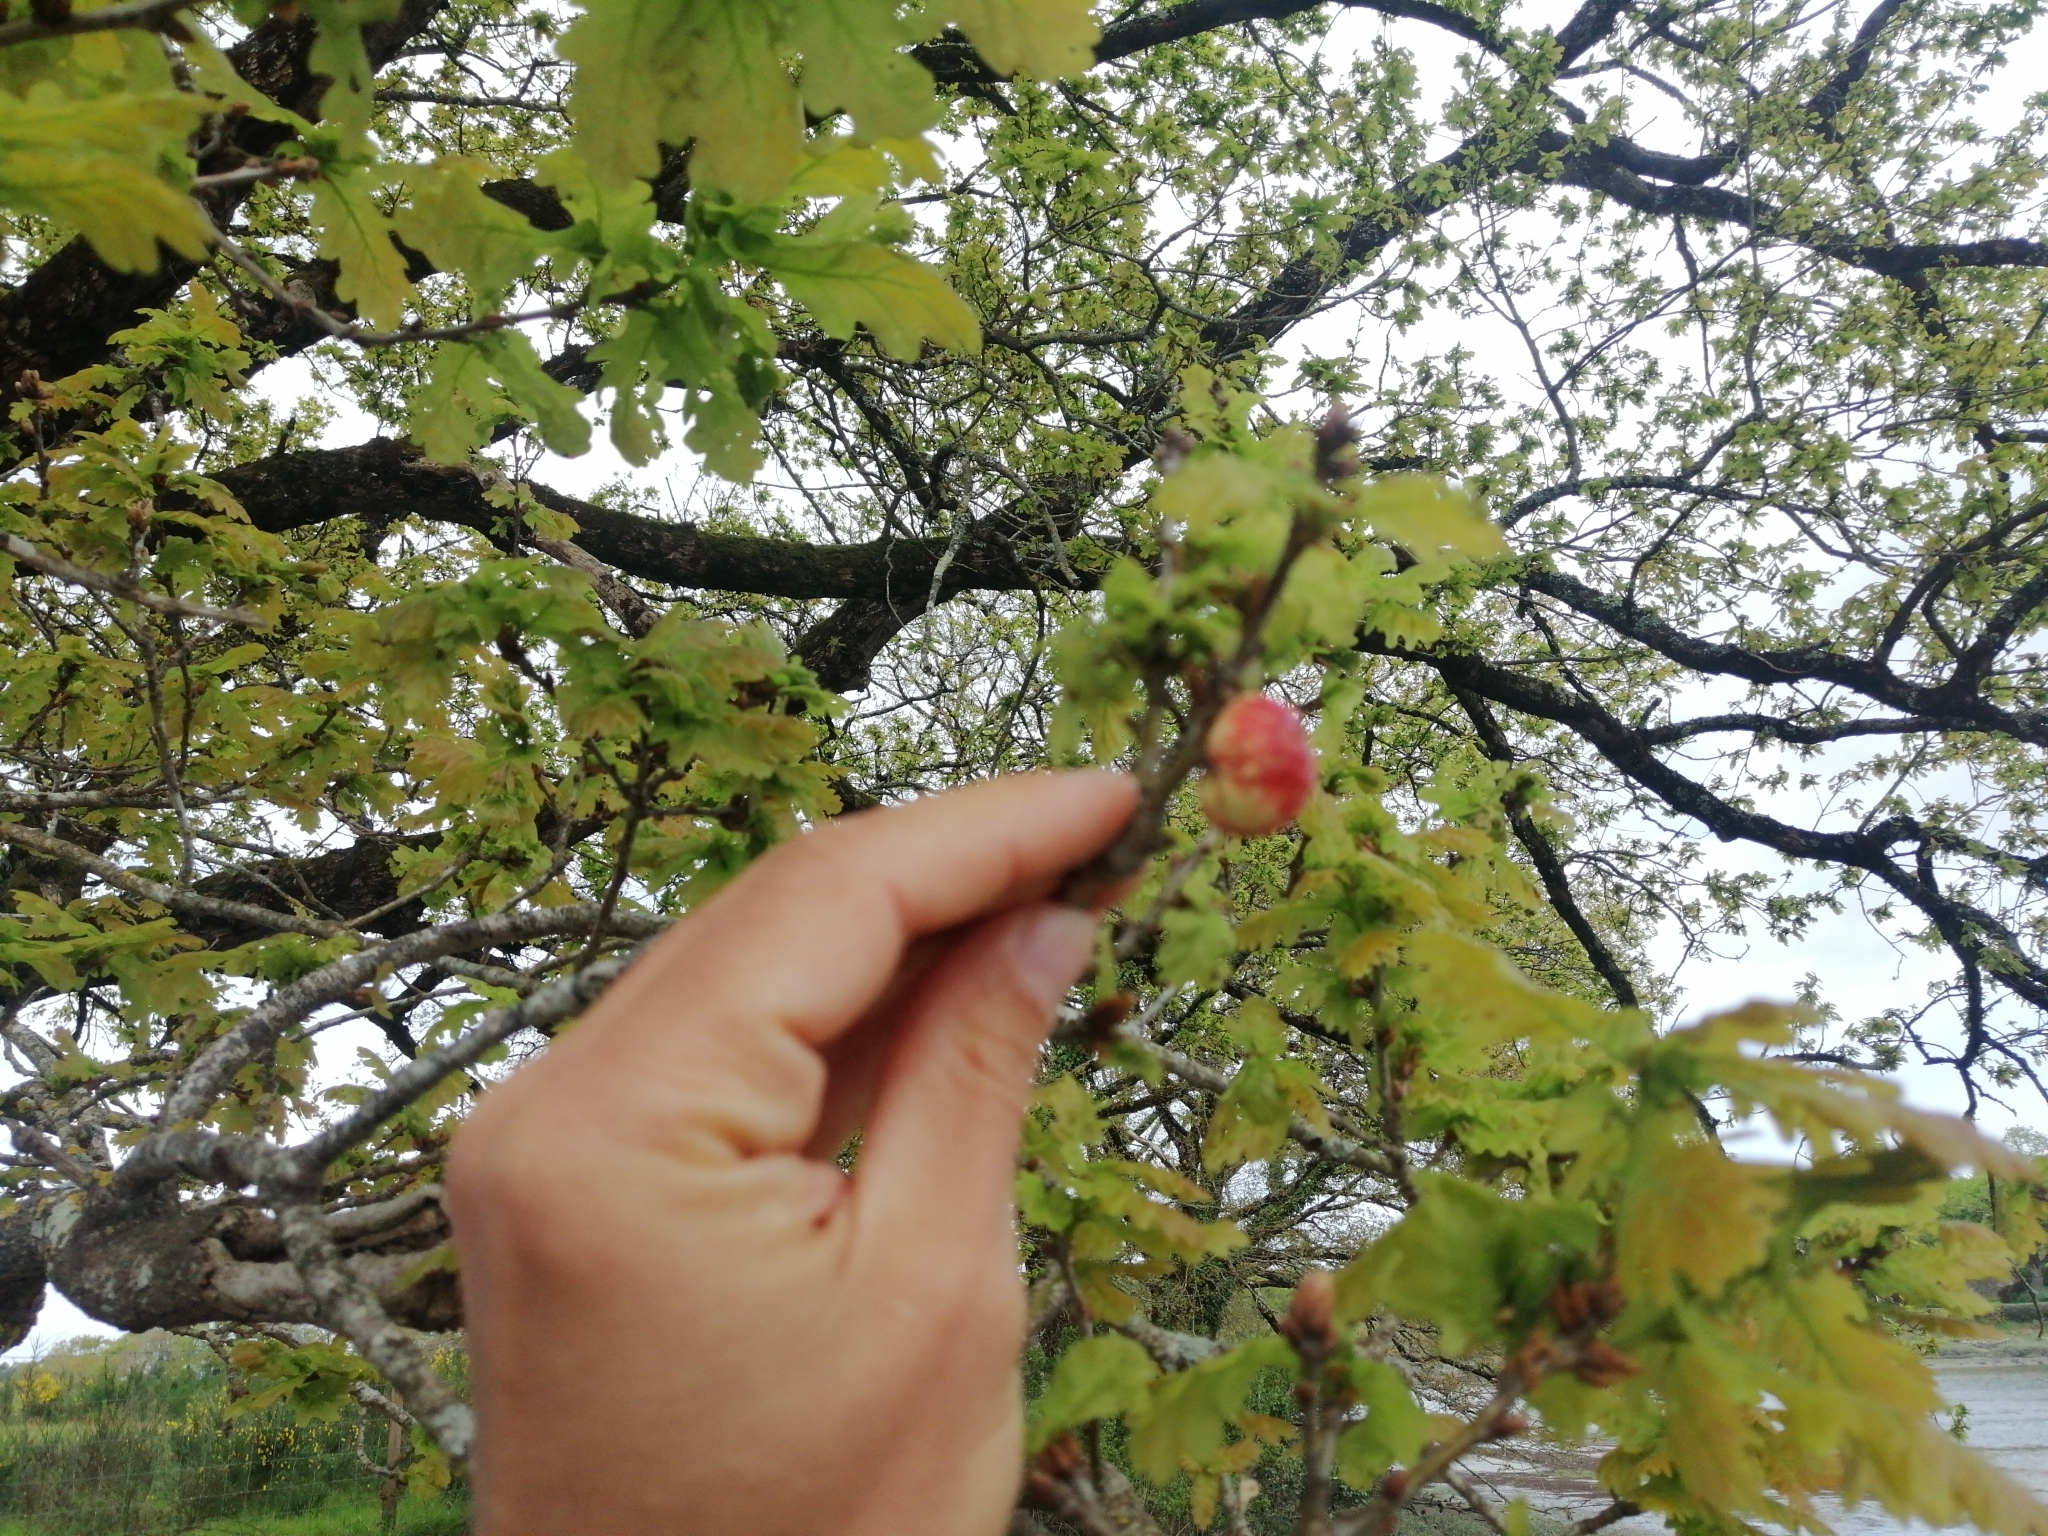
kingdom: Animalia
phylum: Arthropoda
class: Insecta
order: Hymenoptera
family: Cynipidae
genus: Biorhiza
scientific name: Biorhiza pallida
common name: Oak apple
